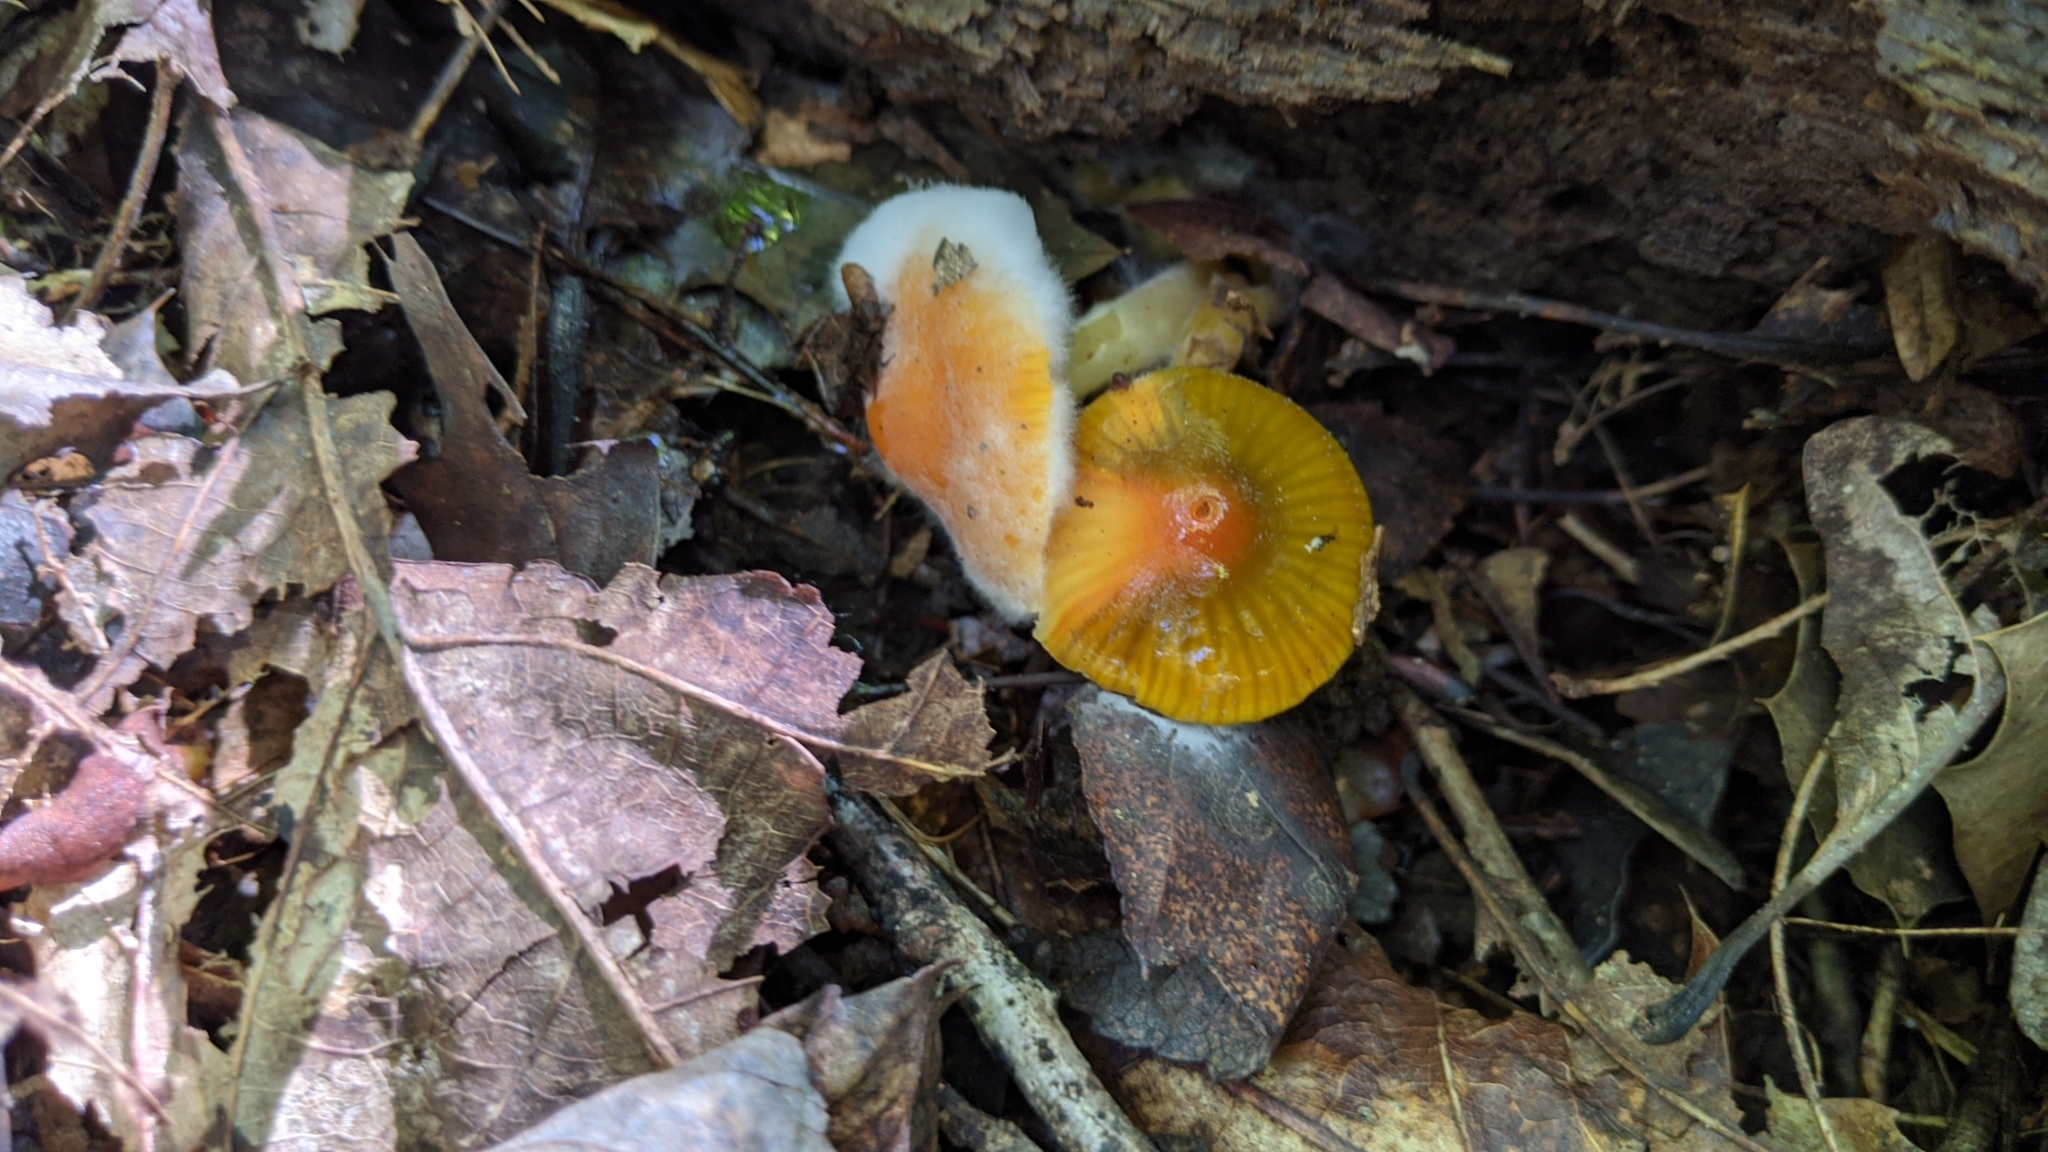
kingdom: Fungi
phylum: Basidiomycota
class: Agaricomycetes
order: Agaricales
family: Hygrophoraceae
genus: Gliophorus
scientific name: Gliophorus psittacinus
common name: Parrot wax-cap
